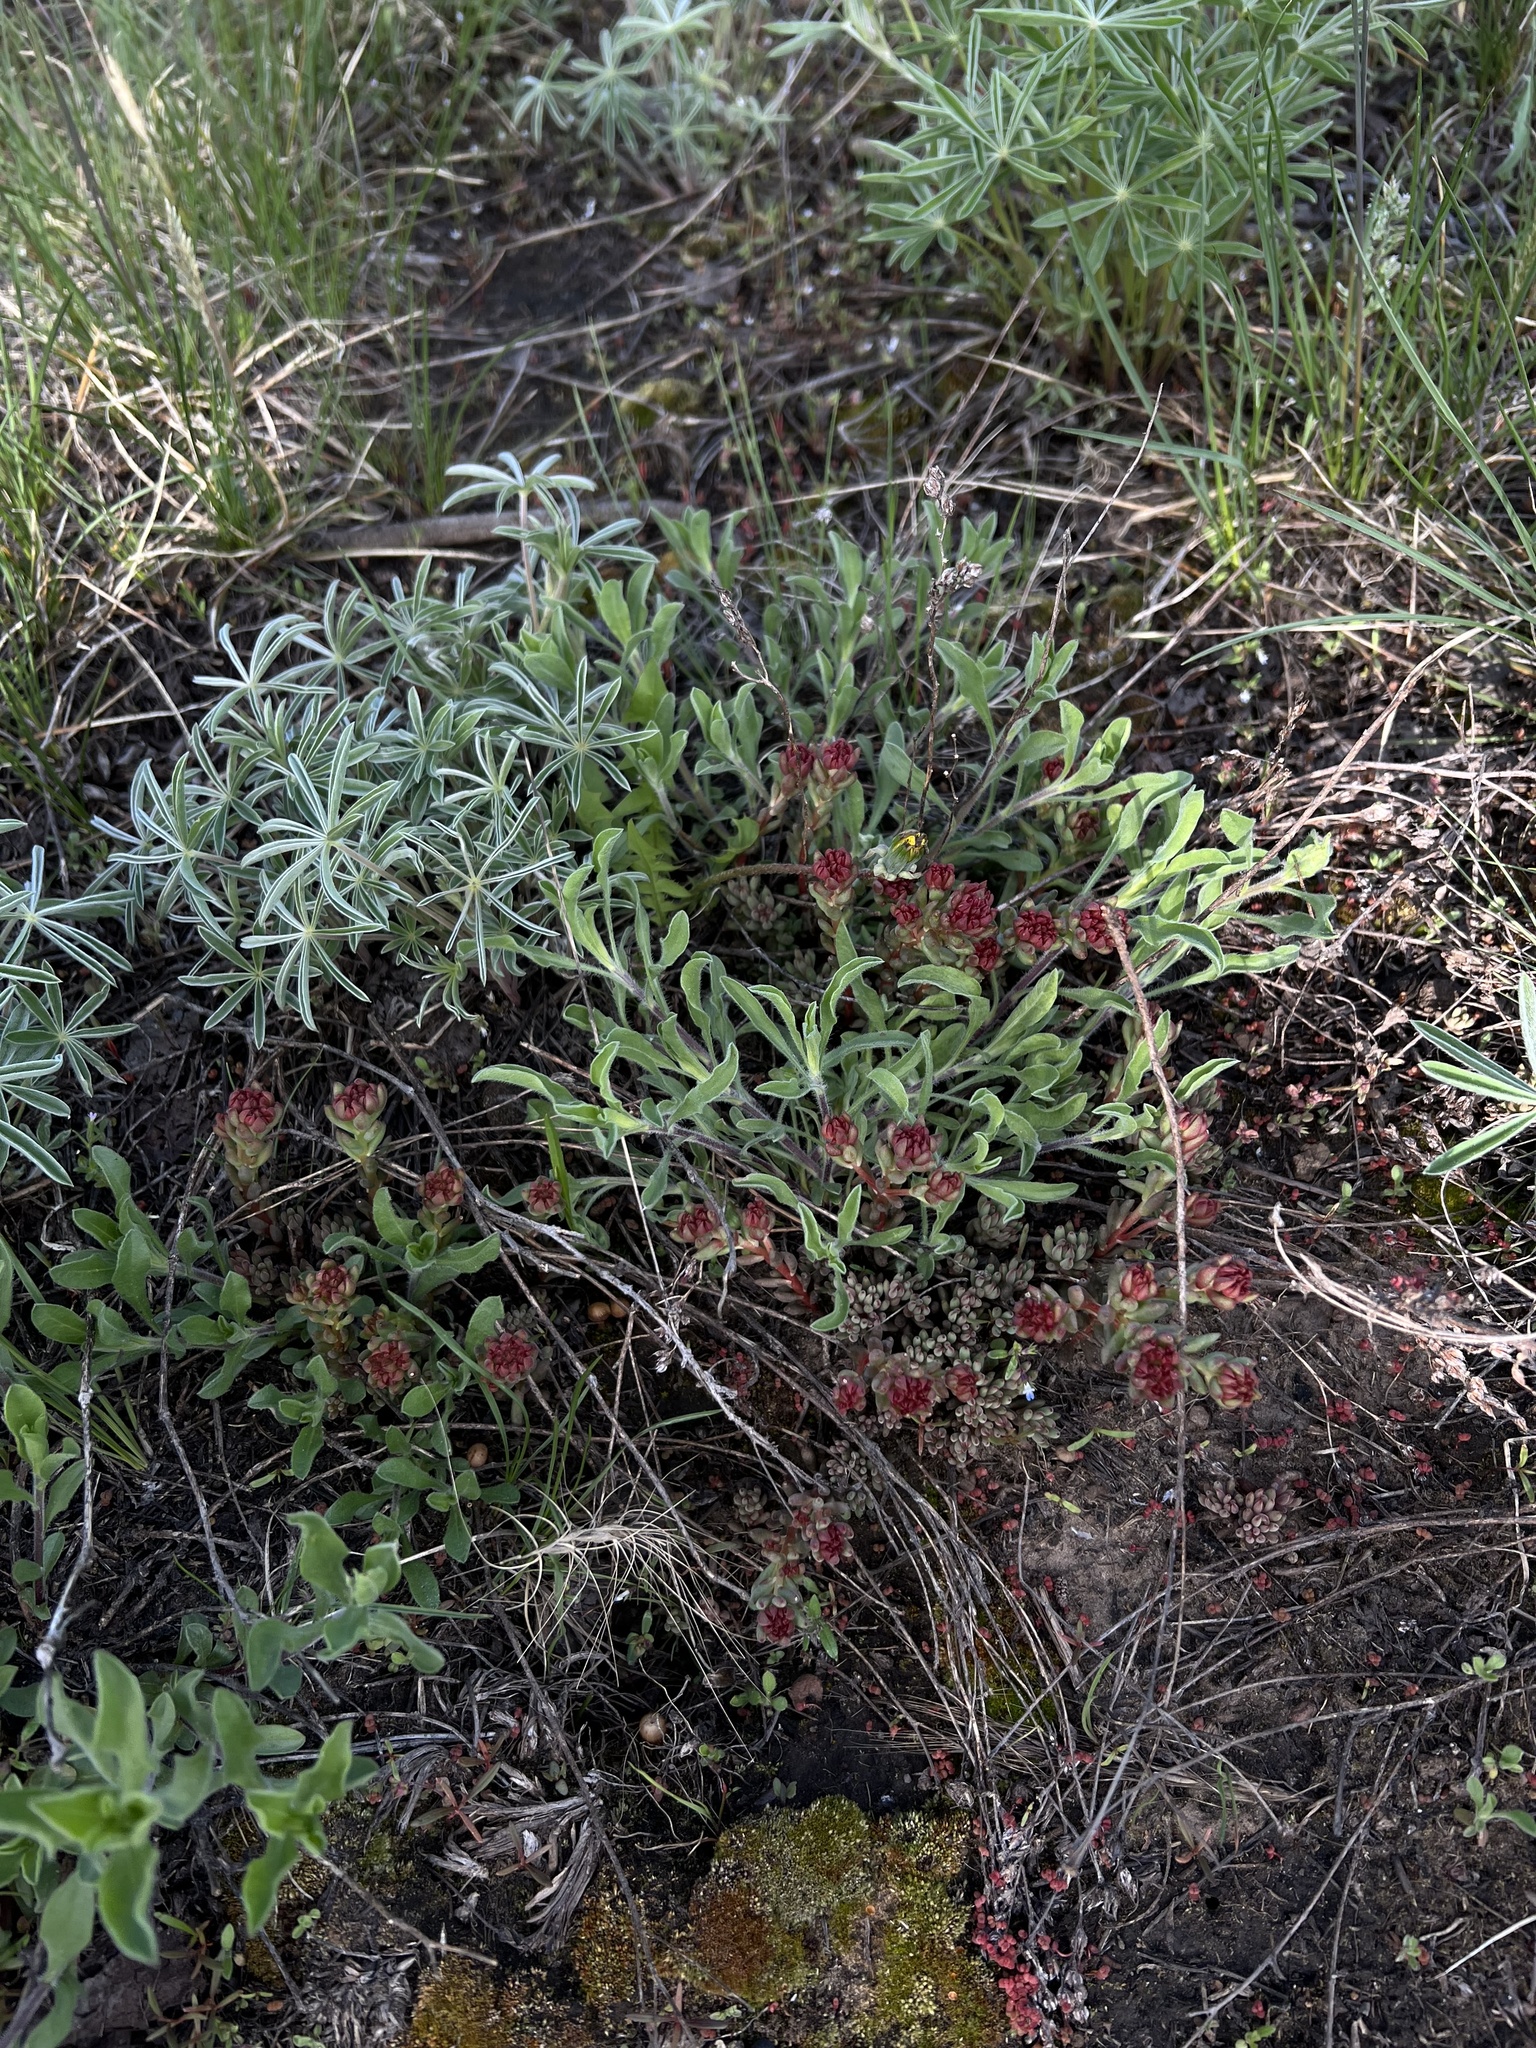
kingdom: Plantae
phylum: Tracheophyta
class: Magnoliopsida
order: Saxifragales
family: Crassulaceae
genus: Sedum
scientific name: Sedum lanceolatum
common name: Common stonecrop
